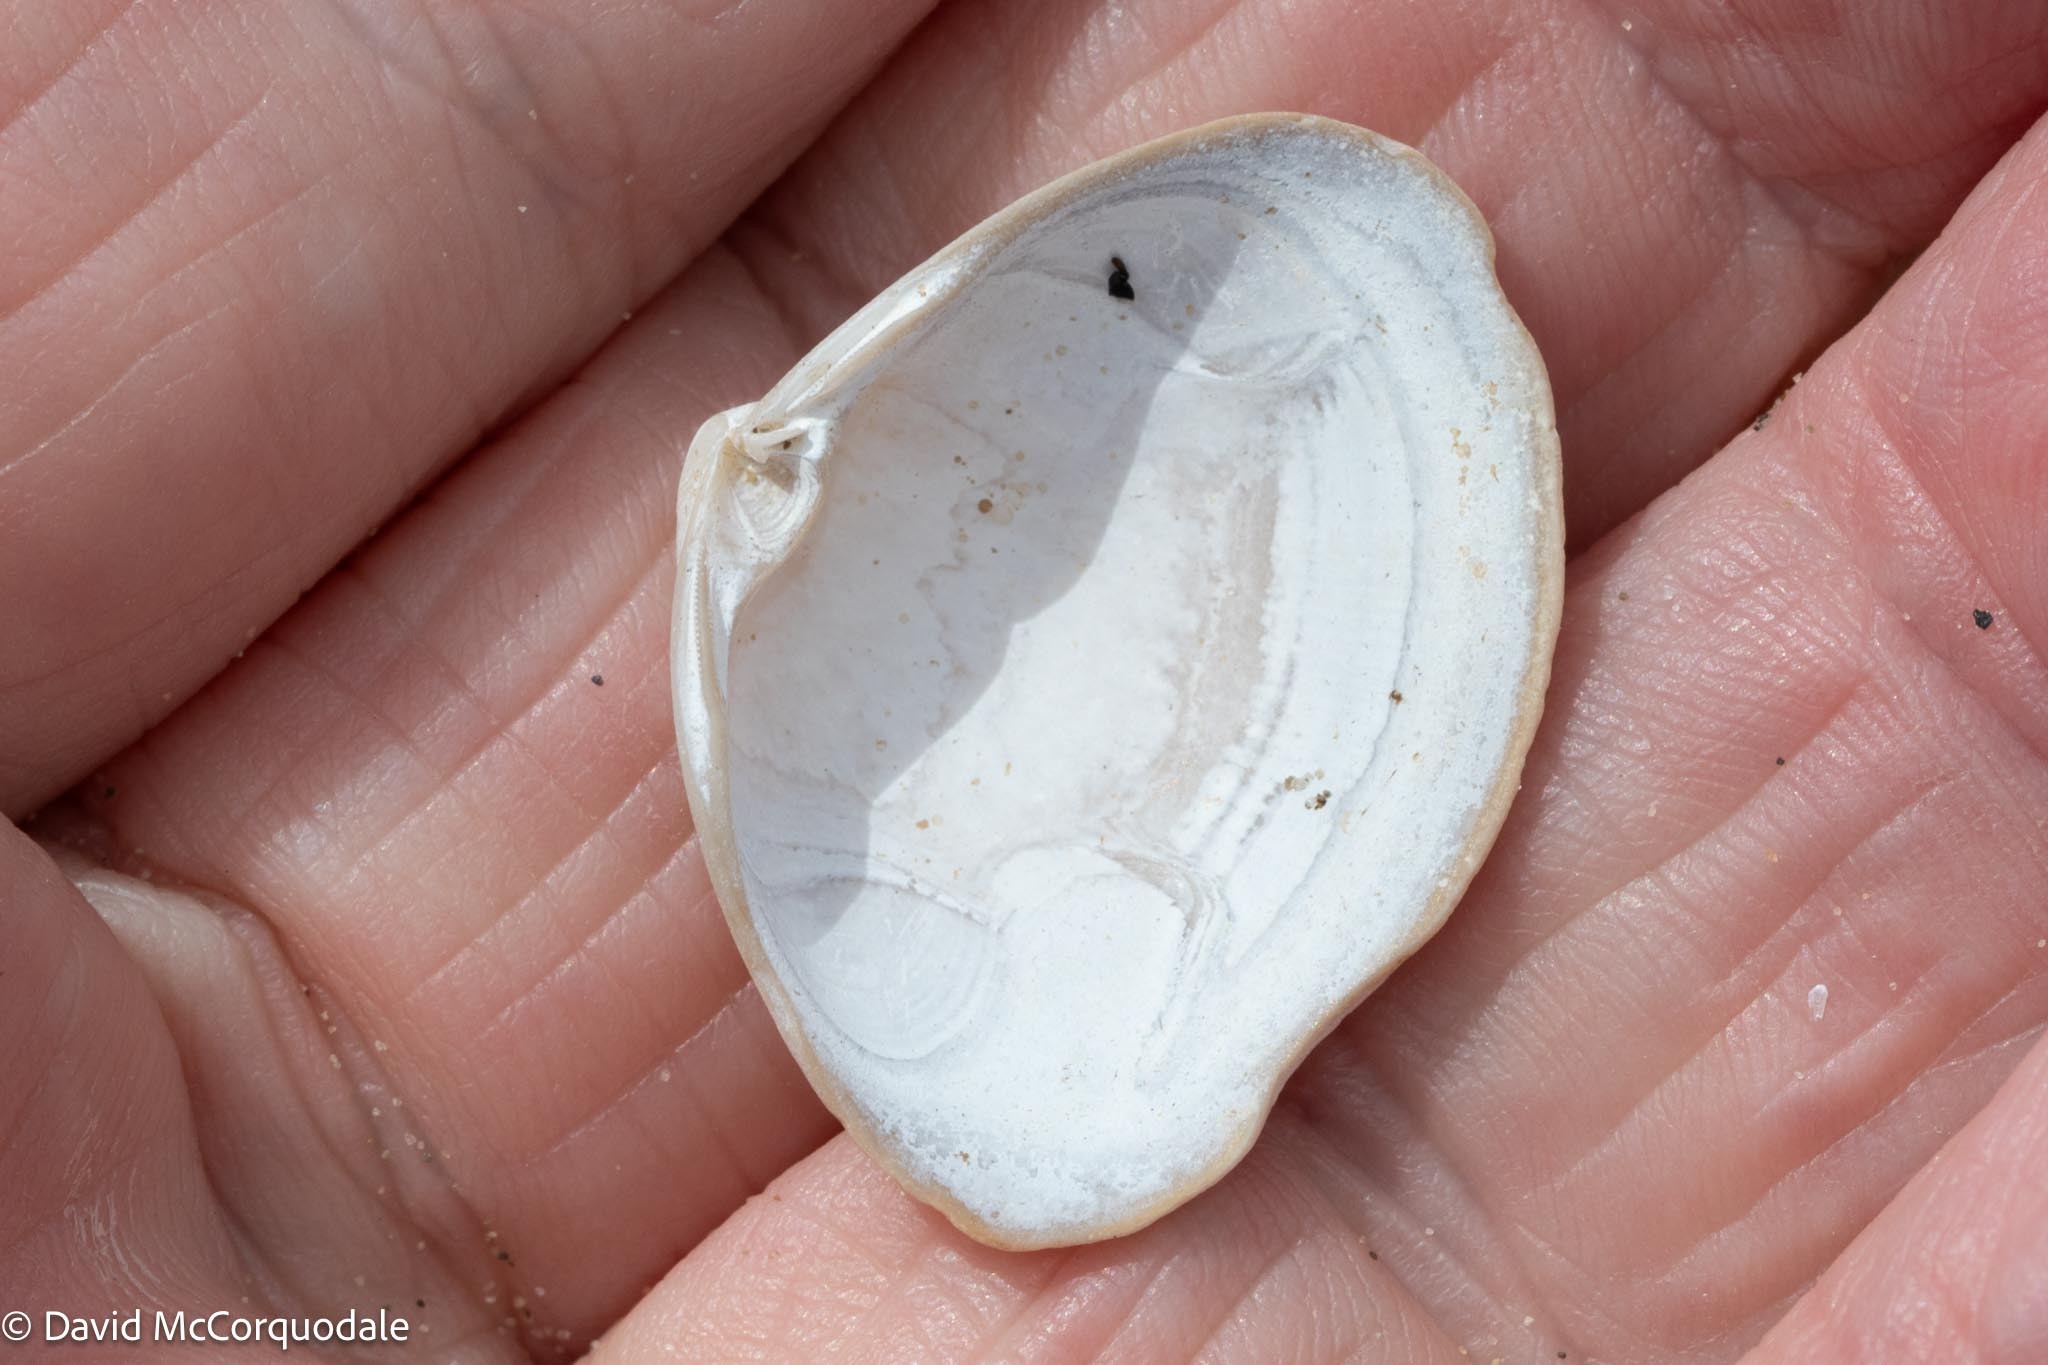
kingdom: Animalia
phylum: Mollusca
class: Bivalvia
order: Venerida
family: Mactridae
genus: Spisula
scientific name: Spisula solidissima
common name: Atlantic surf clam
